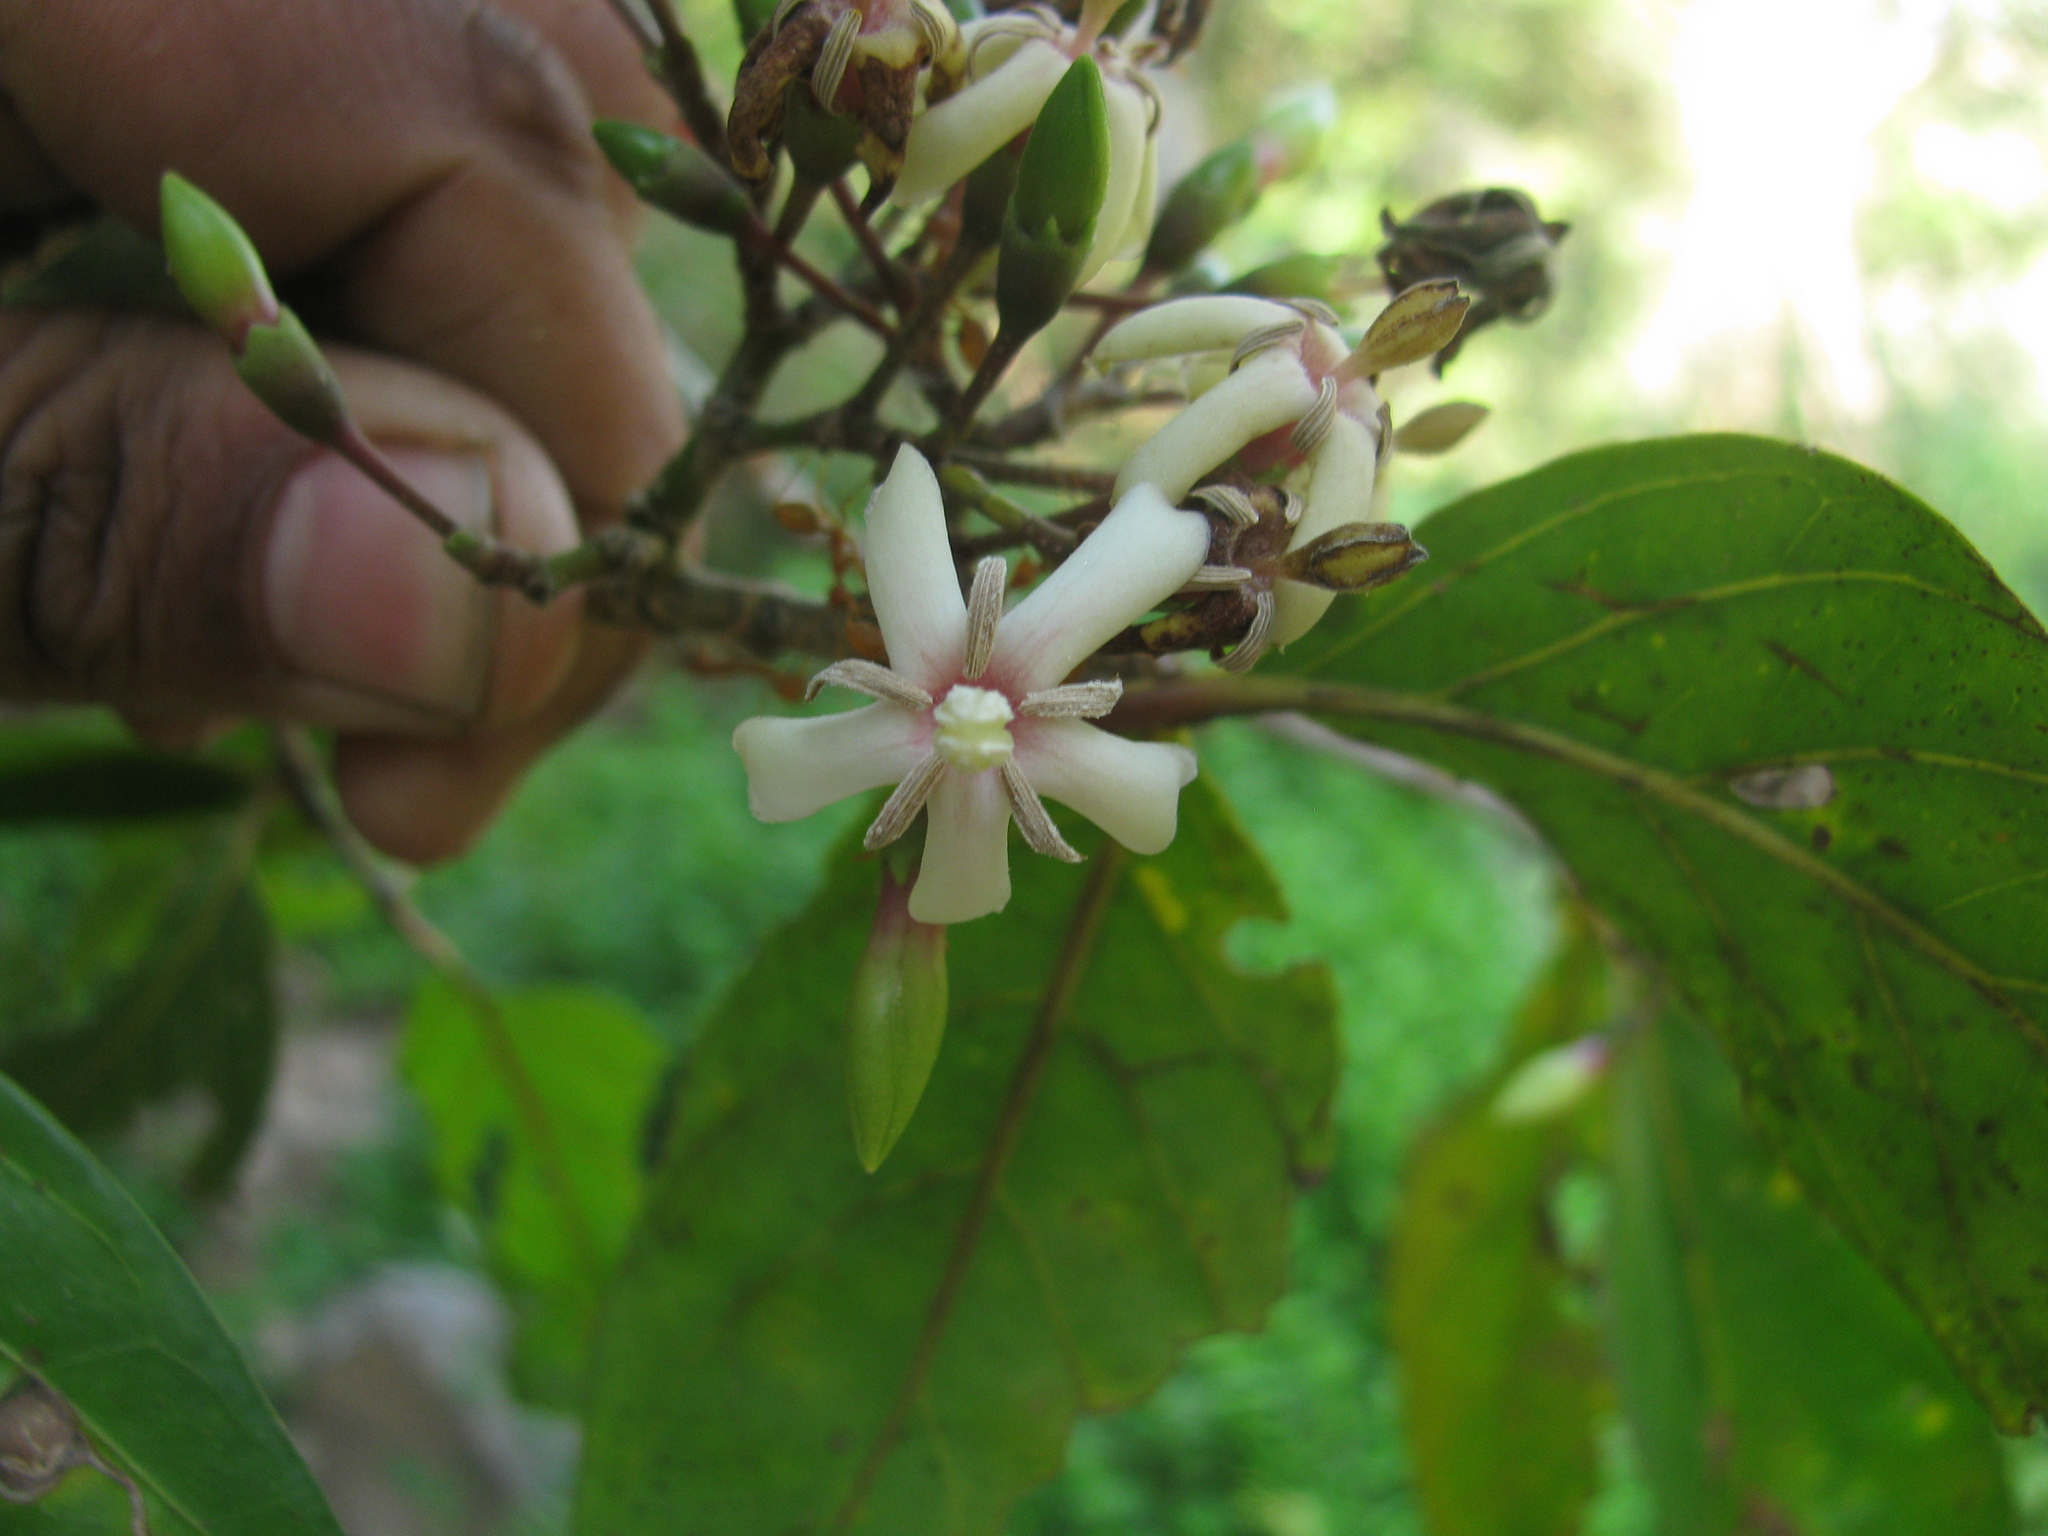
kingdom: Plantae
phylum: Tracheophyta
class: Magnoliopsida
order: Gentianales
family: Rubiaceae
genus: Oxyceros
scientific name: Oxyceros rugulosus
